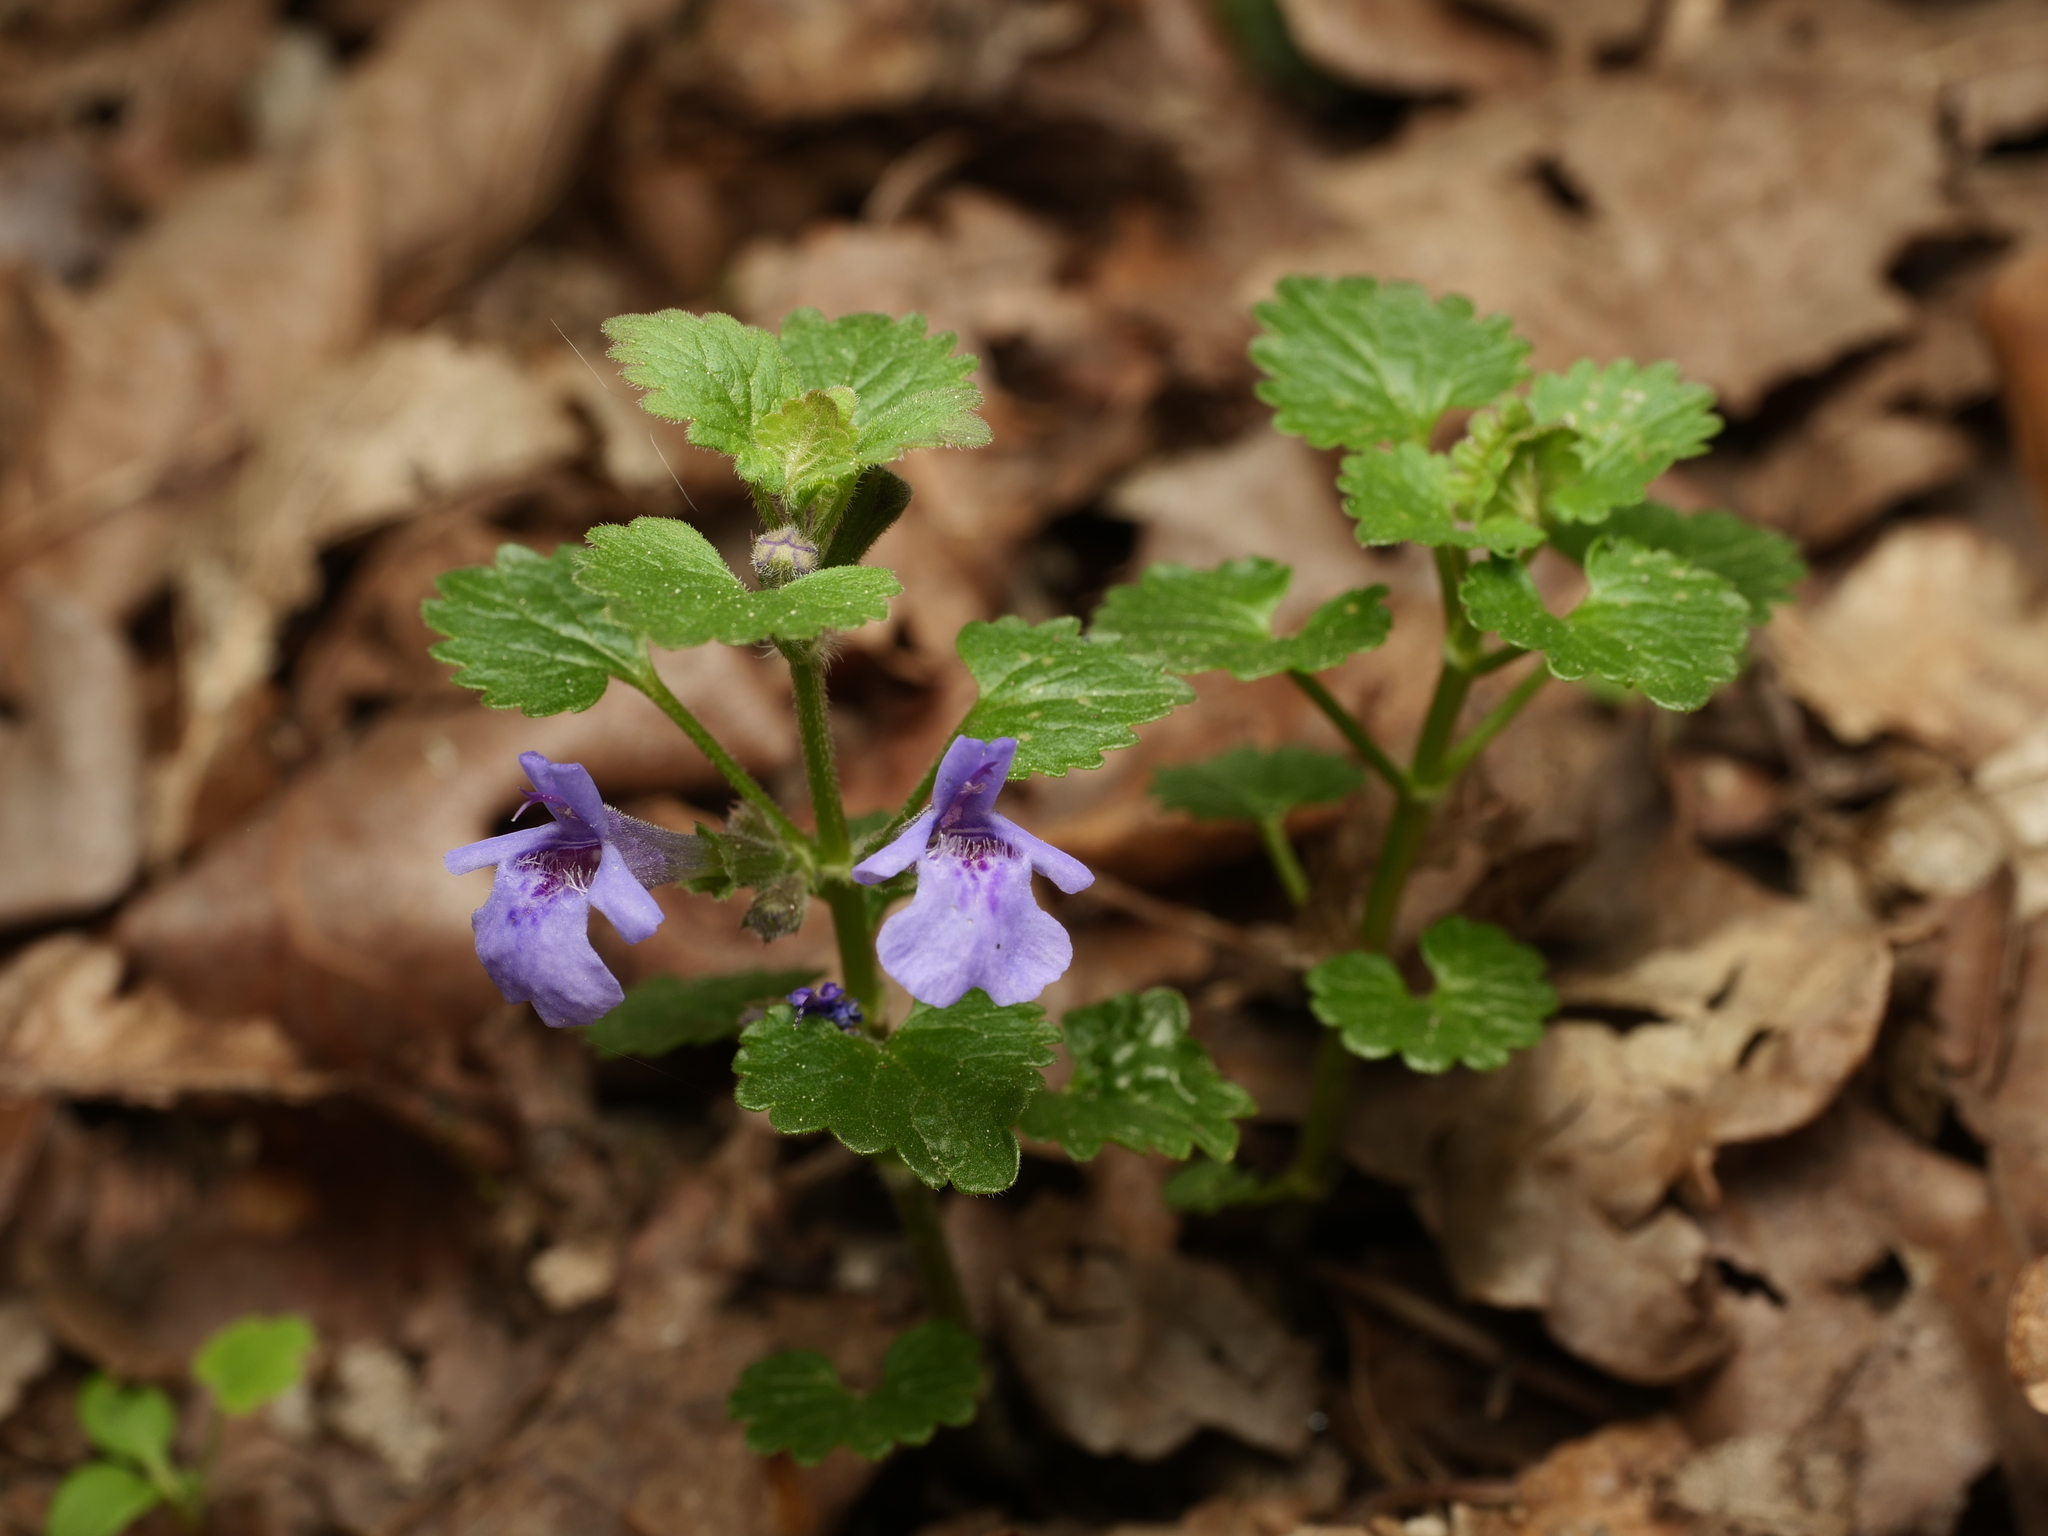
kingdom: Plantae
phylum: Tracheophyta
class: Magnoliopsida
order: Lamiales
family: Lamiaceae
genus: Glechoma
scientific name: Glechoma hederacea
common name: Ground ivy
